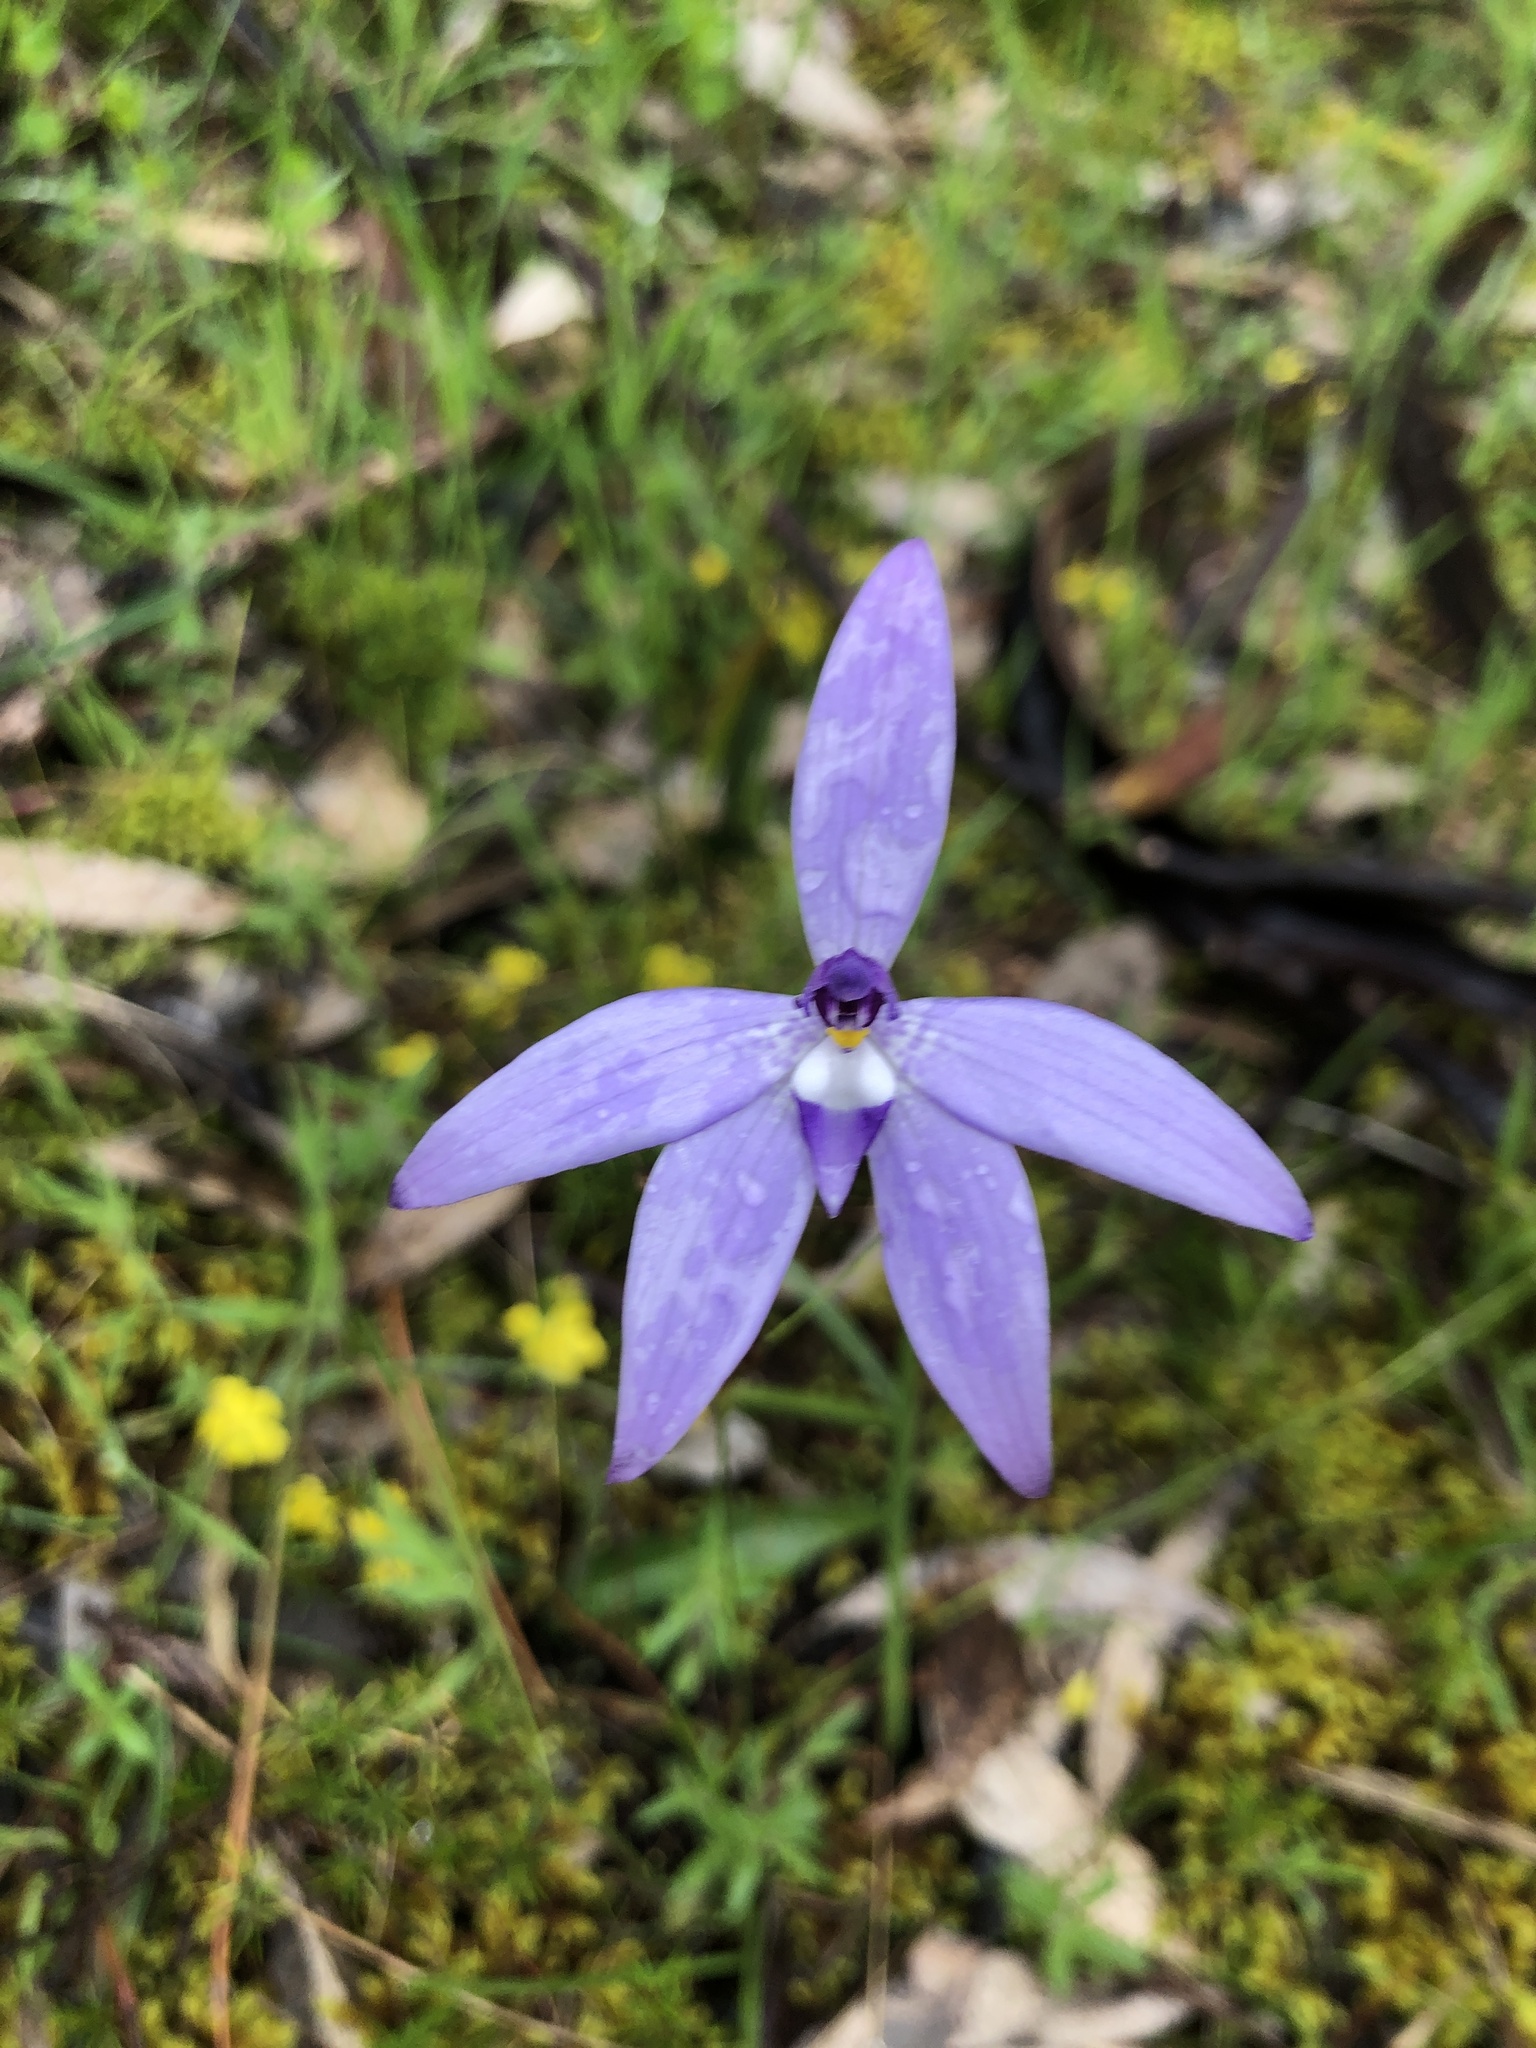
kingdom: Plantae
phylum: Tracheophyta
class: Liliopsida
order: Asparagales
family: Orchidaceae
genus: Caladenia
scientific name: Caladenia major
